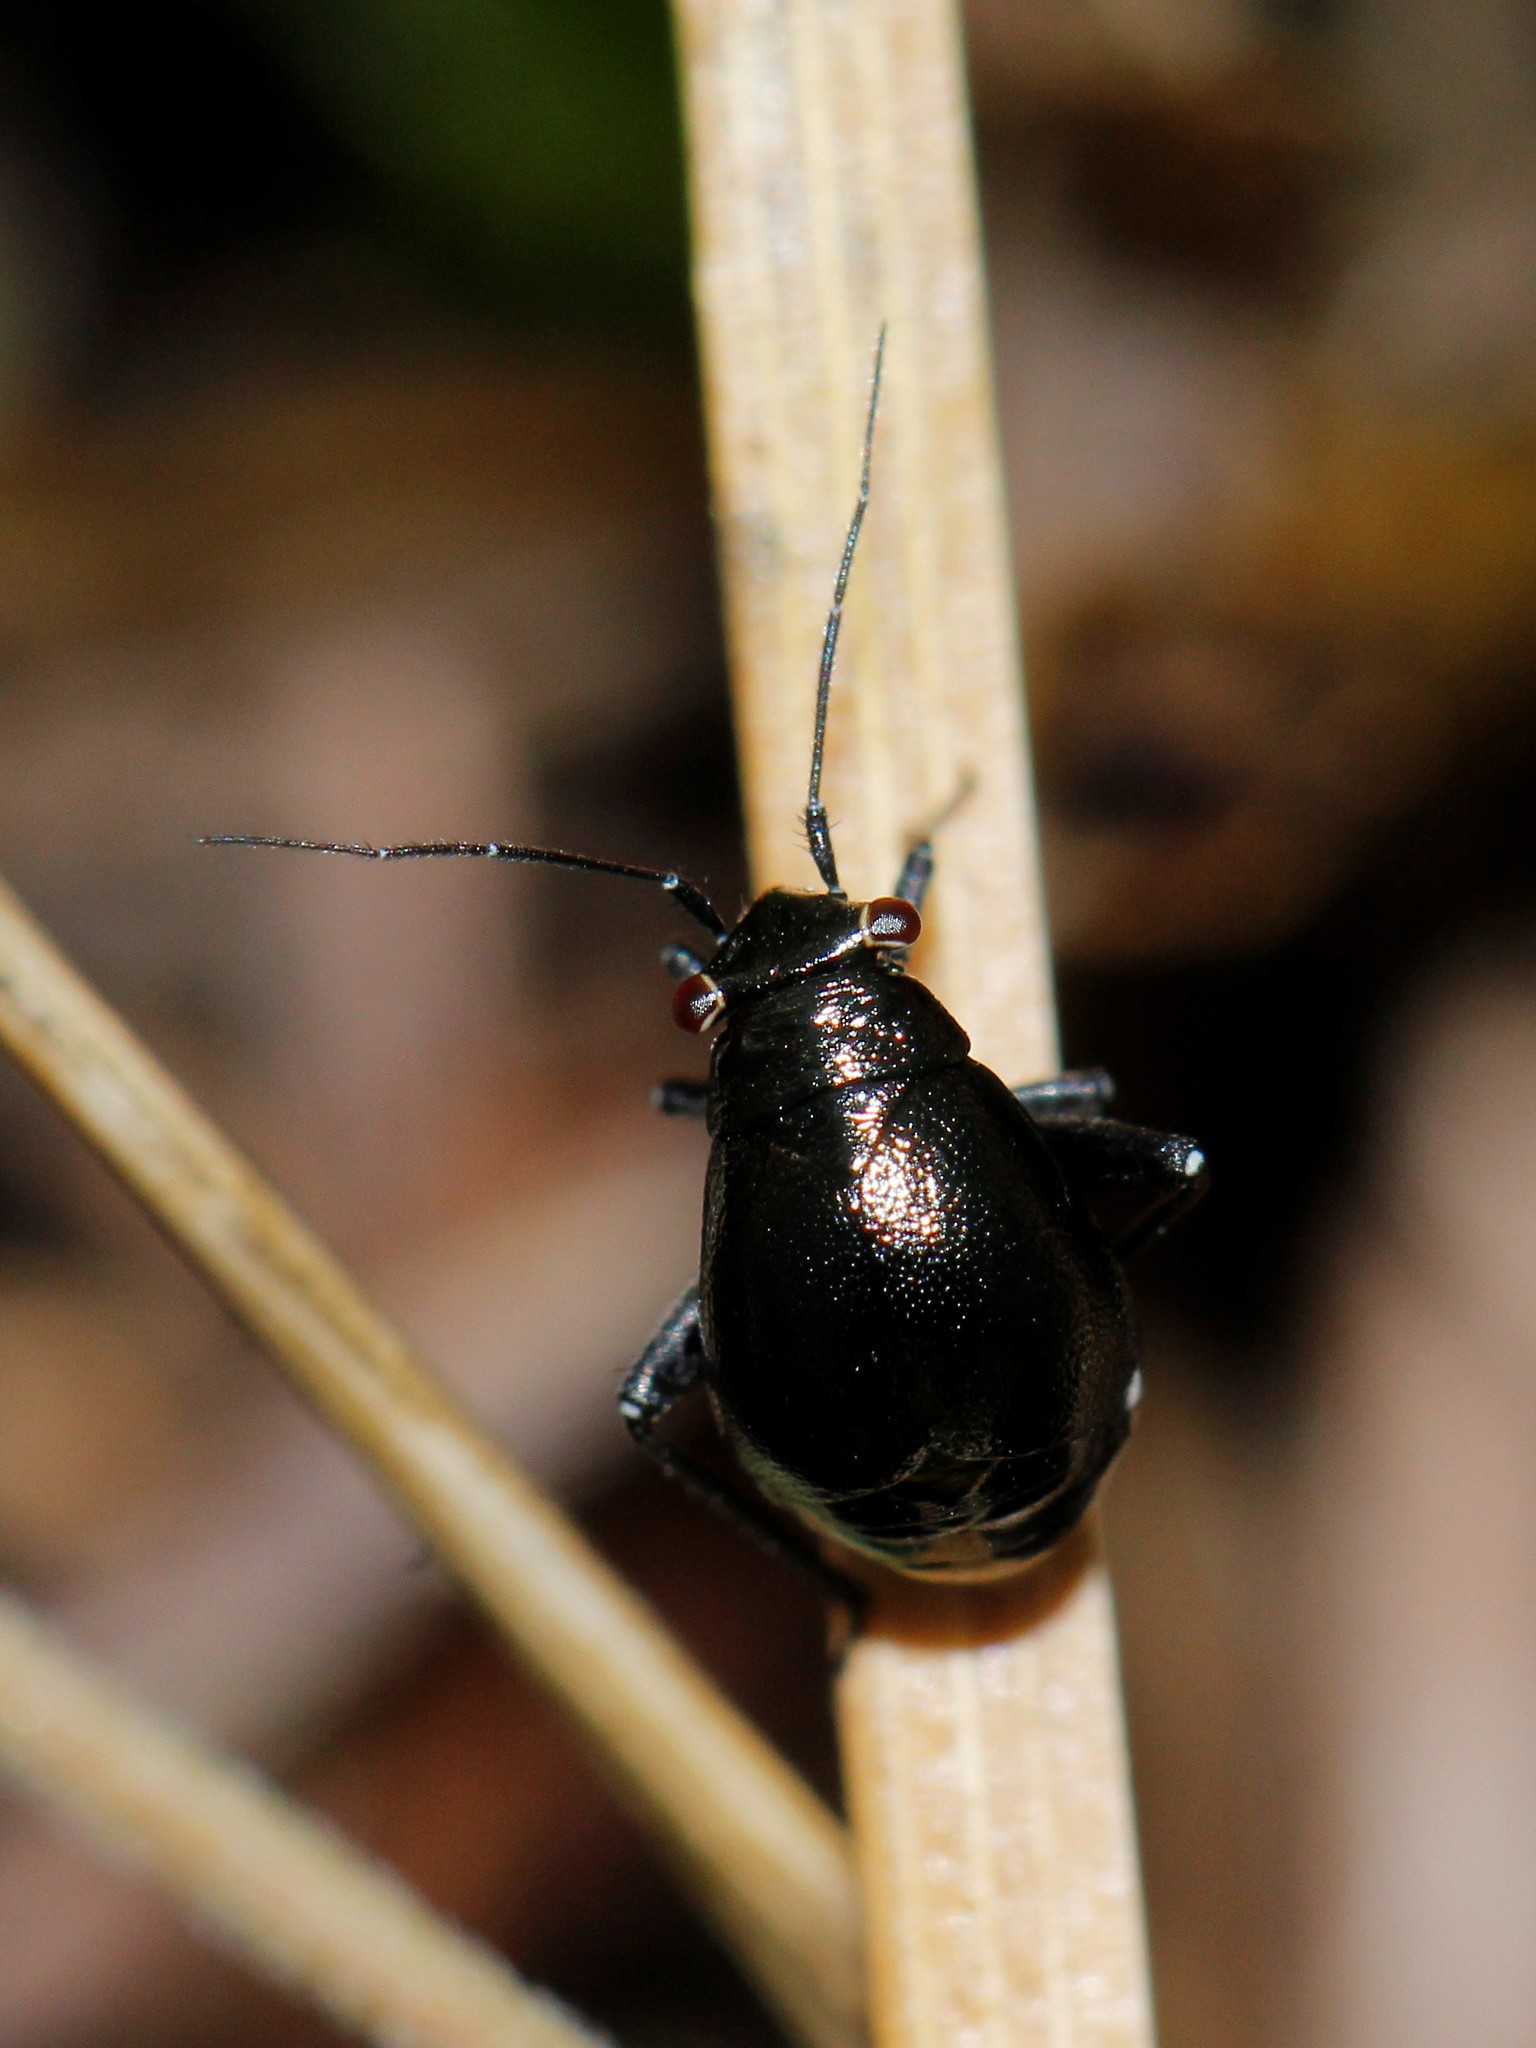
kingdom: Animalia
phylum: Arthropoda
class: Insecta
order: Hemiptera
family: Miridae
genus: Euryopicoris
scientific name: Euryopicoris nitidus
